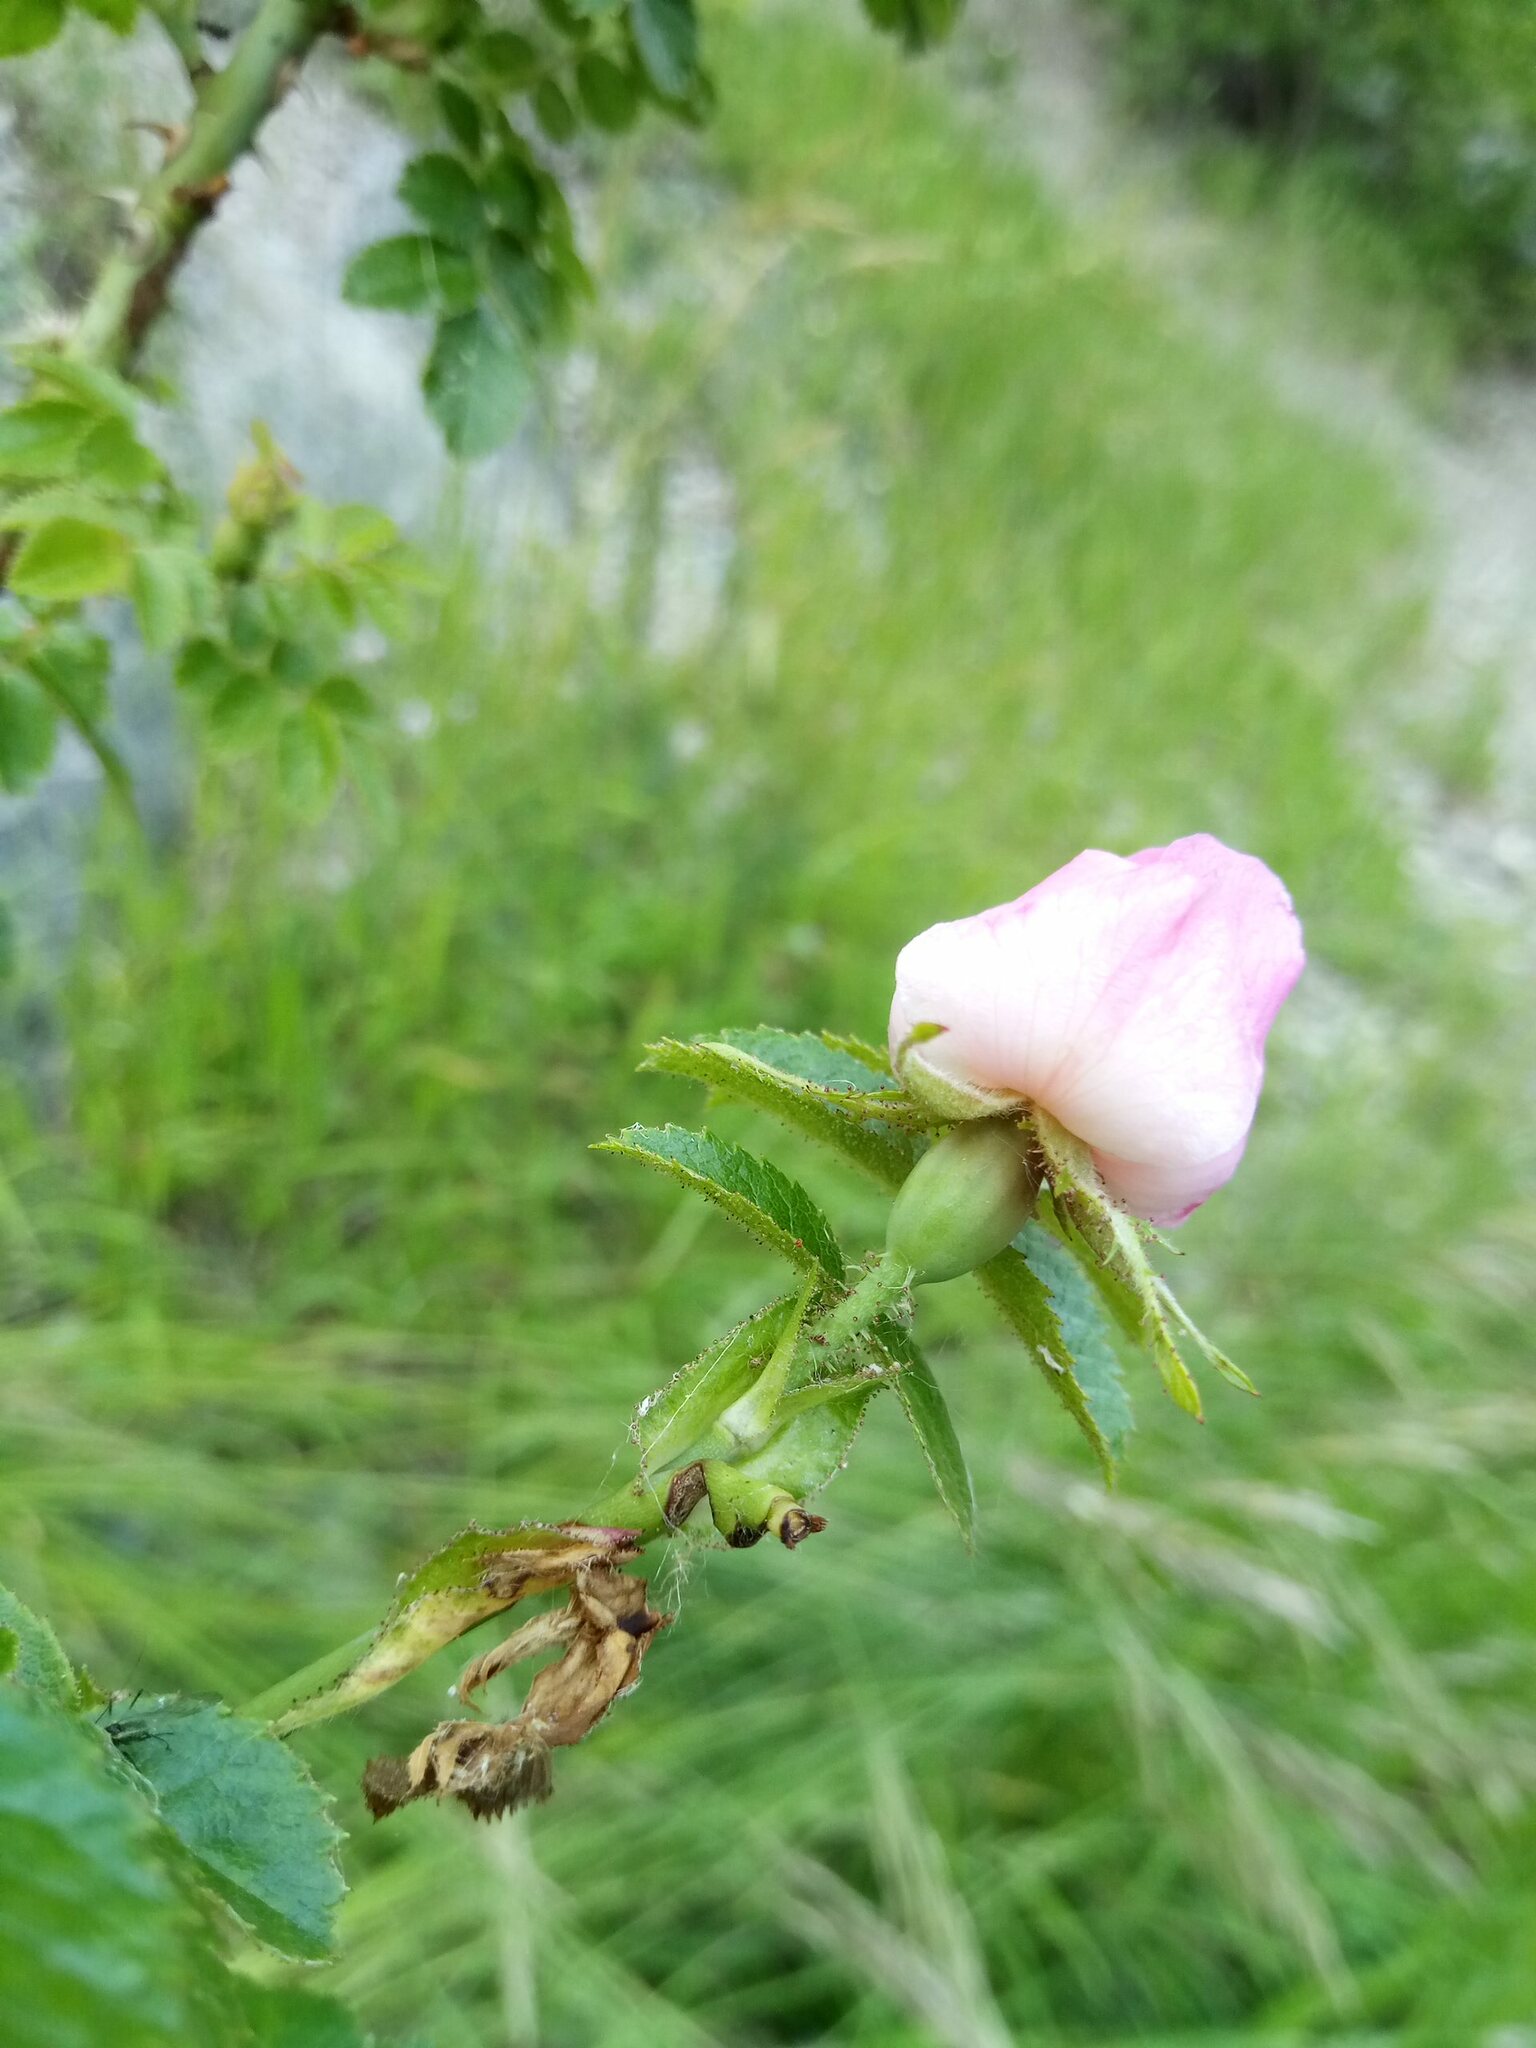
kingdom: Plantae
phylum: Tracheophyta
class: Magnoliopsida
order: Rosales
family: Rosaceae
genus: Rosa
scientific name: Rosa rubiginosa
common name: Sweet-briar
